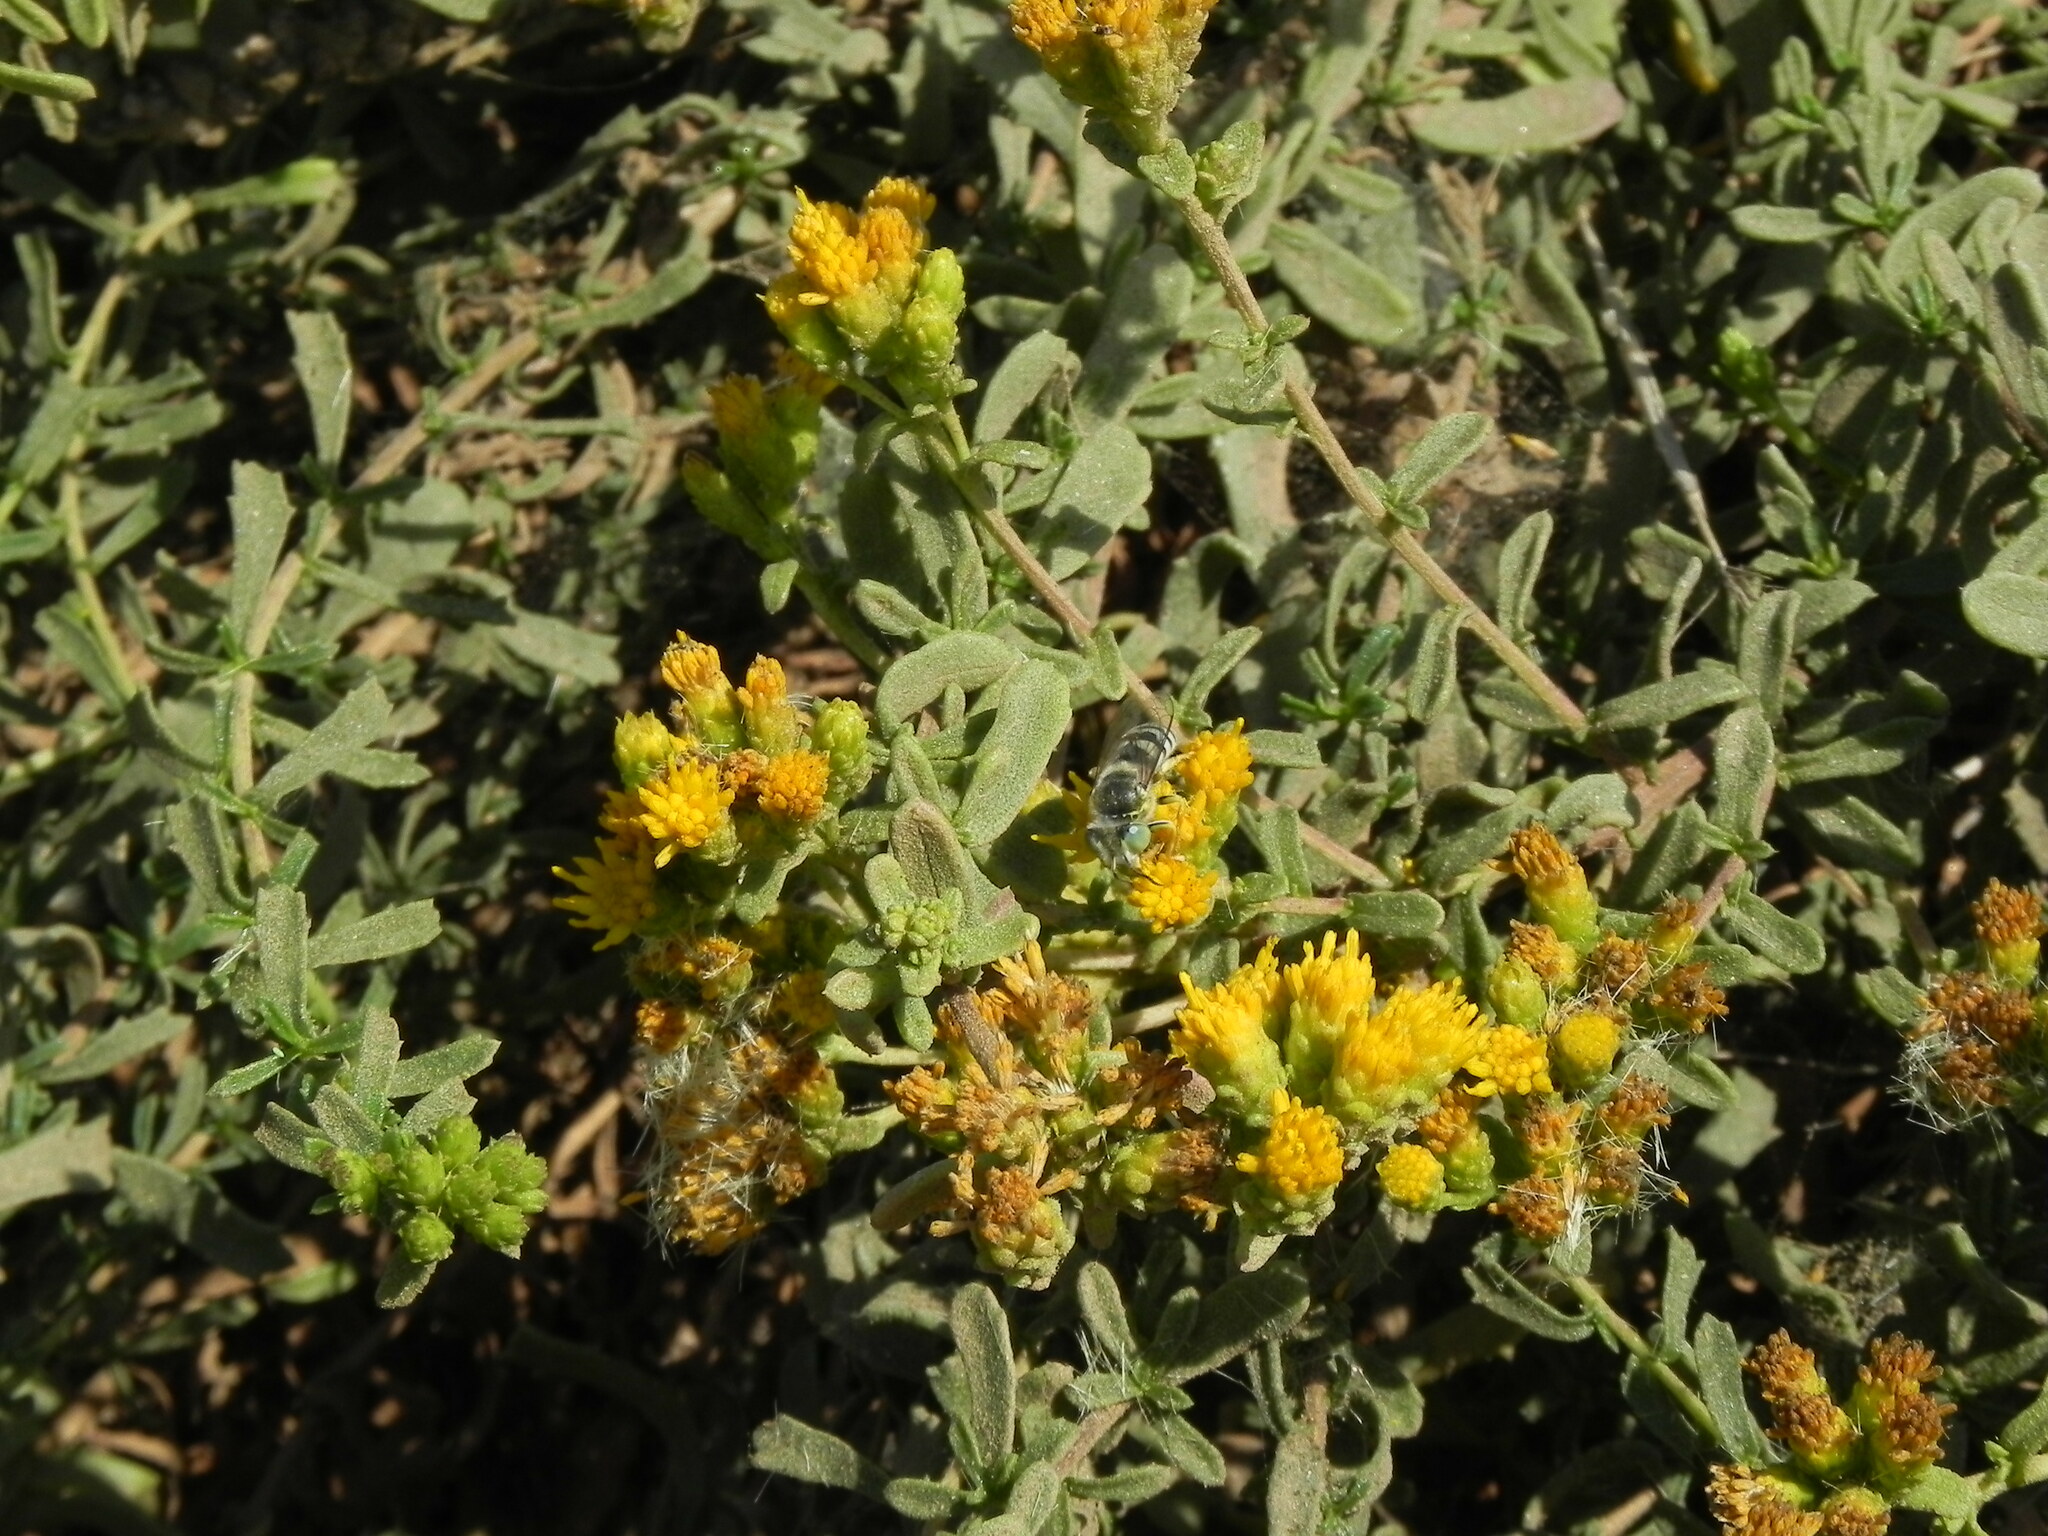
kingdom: Plantae
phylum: Tracheophyta
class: Magnoliopsida
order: Asterales
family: Asteraceae
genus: Isocoma
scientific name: Isocoma menziesii
